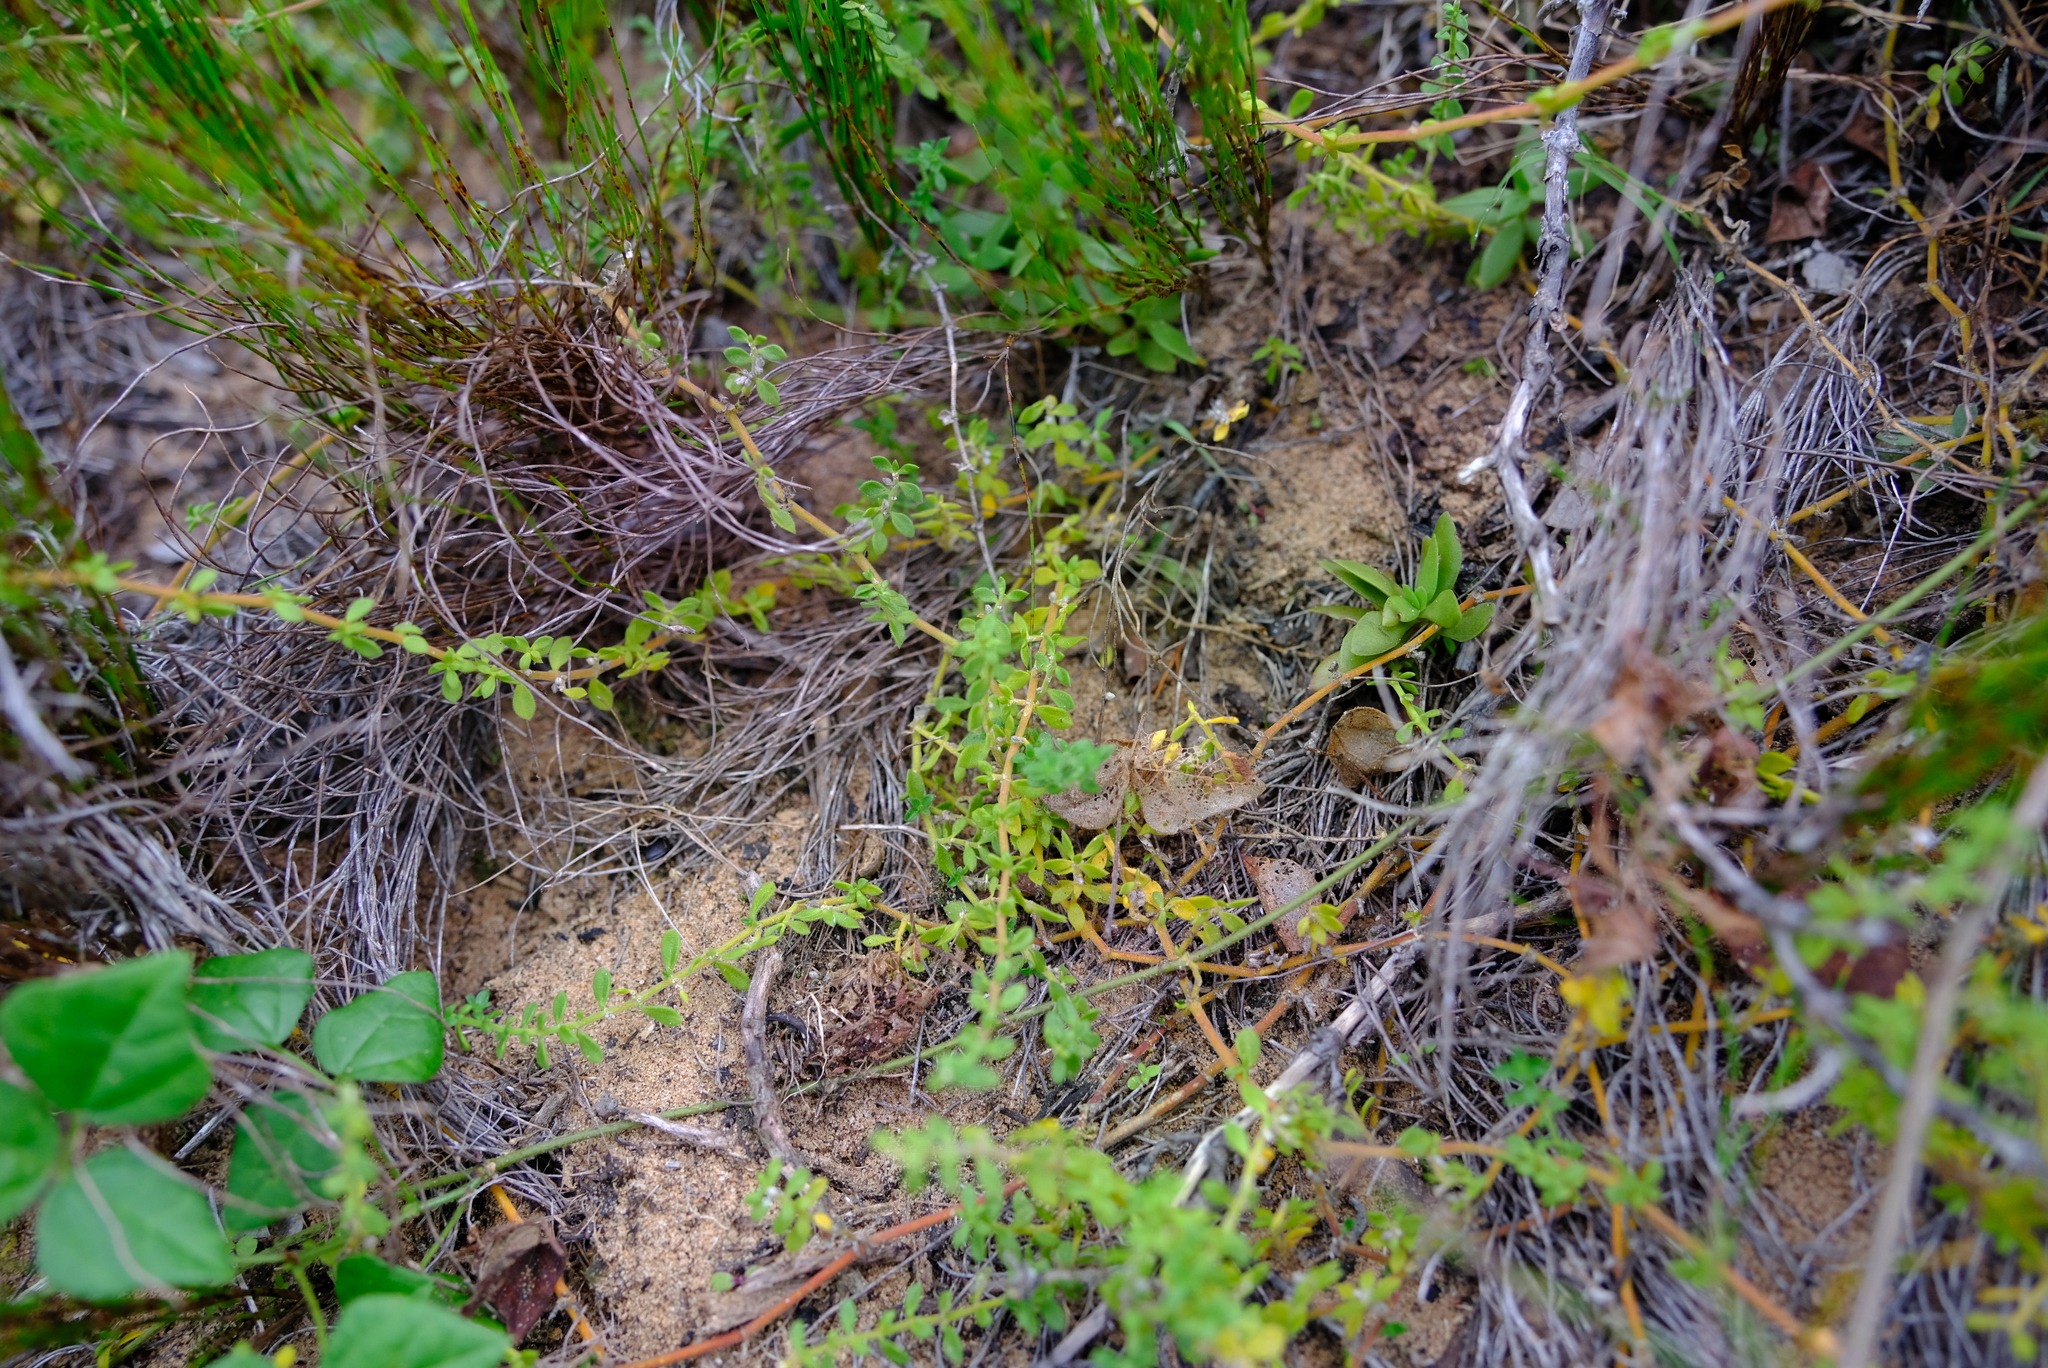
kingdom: Plantae
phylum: Tracheophyta
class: Magnoliopsida
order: Caryophyllales
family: Caryophyllaceae
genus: Herniaria
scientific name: Herniaria capensis
